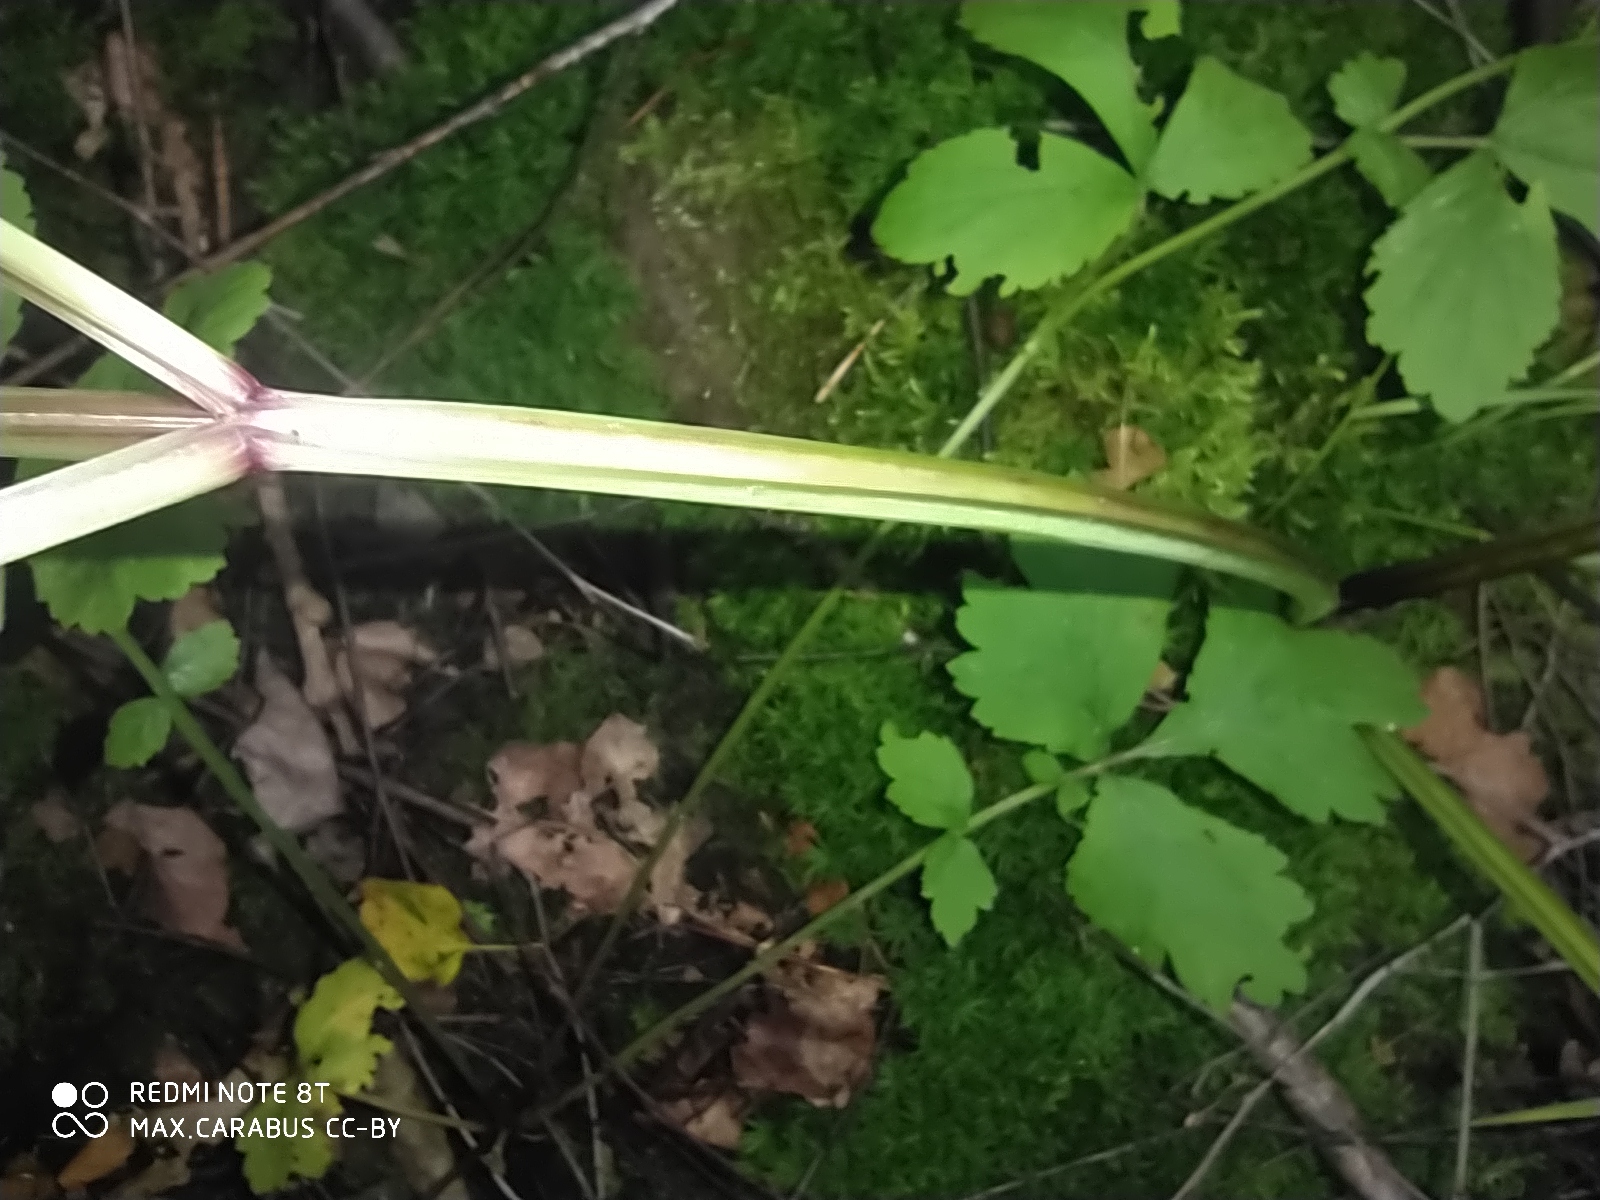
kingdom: Plantae
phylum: Tracheophyta
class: Magnoliopsida
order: Apiales
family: Apiaceae
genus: Angelica
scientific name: Angelica sylvestris
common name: Wild angelica
